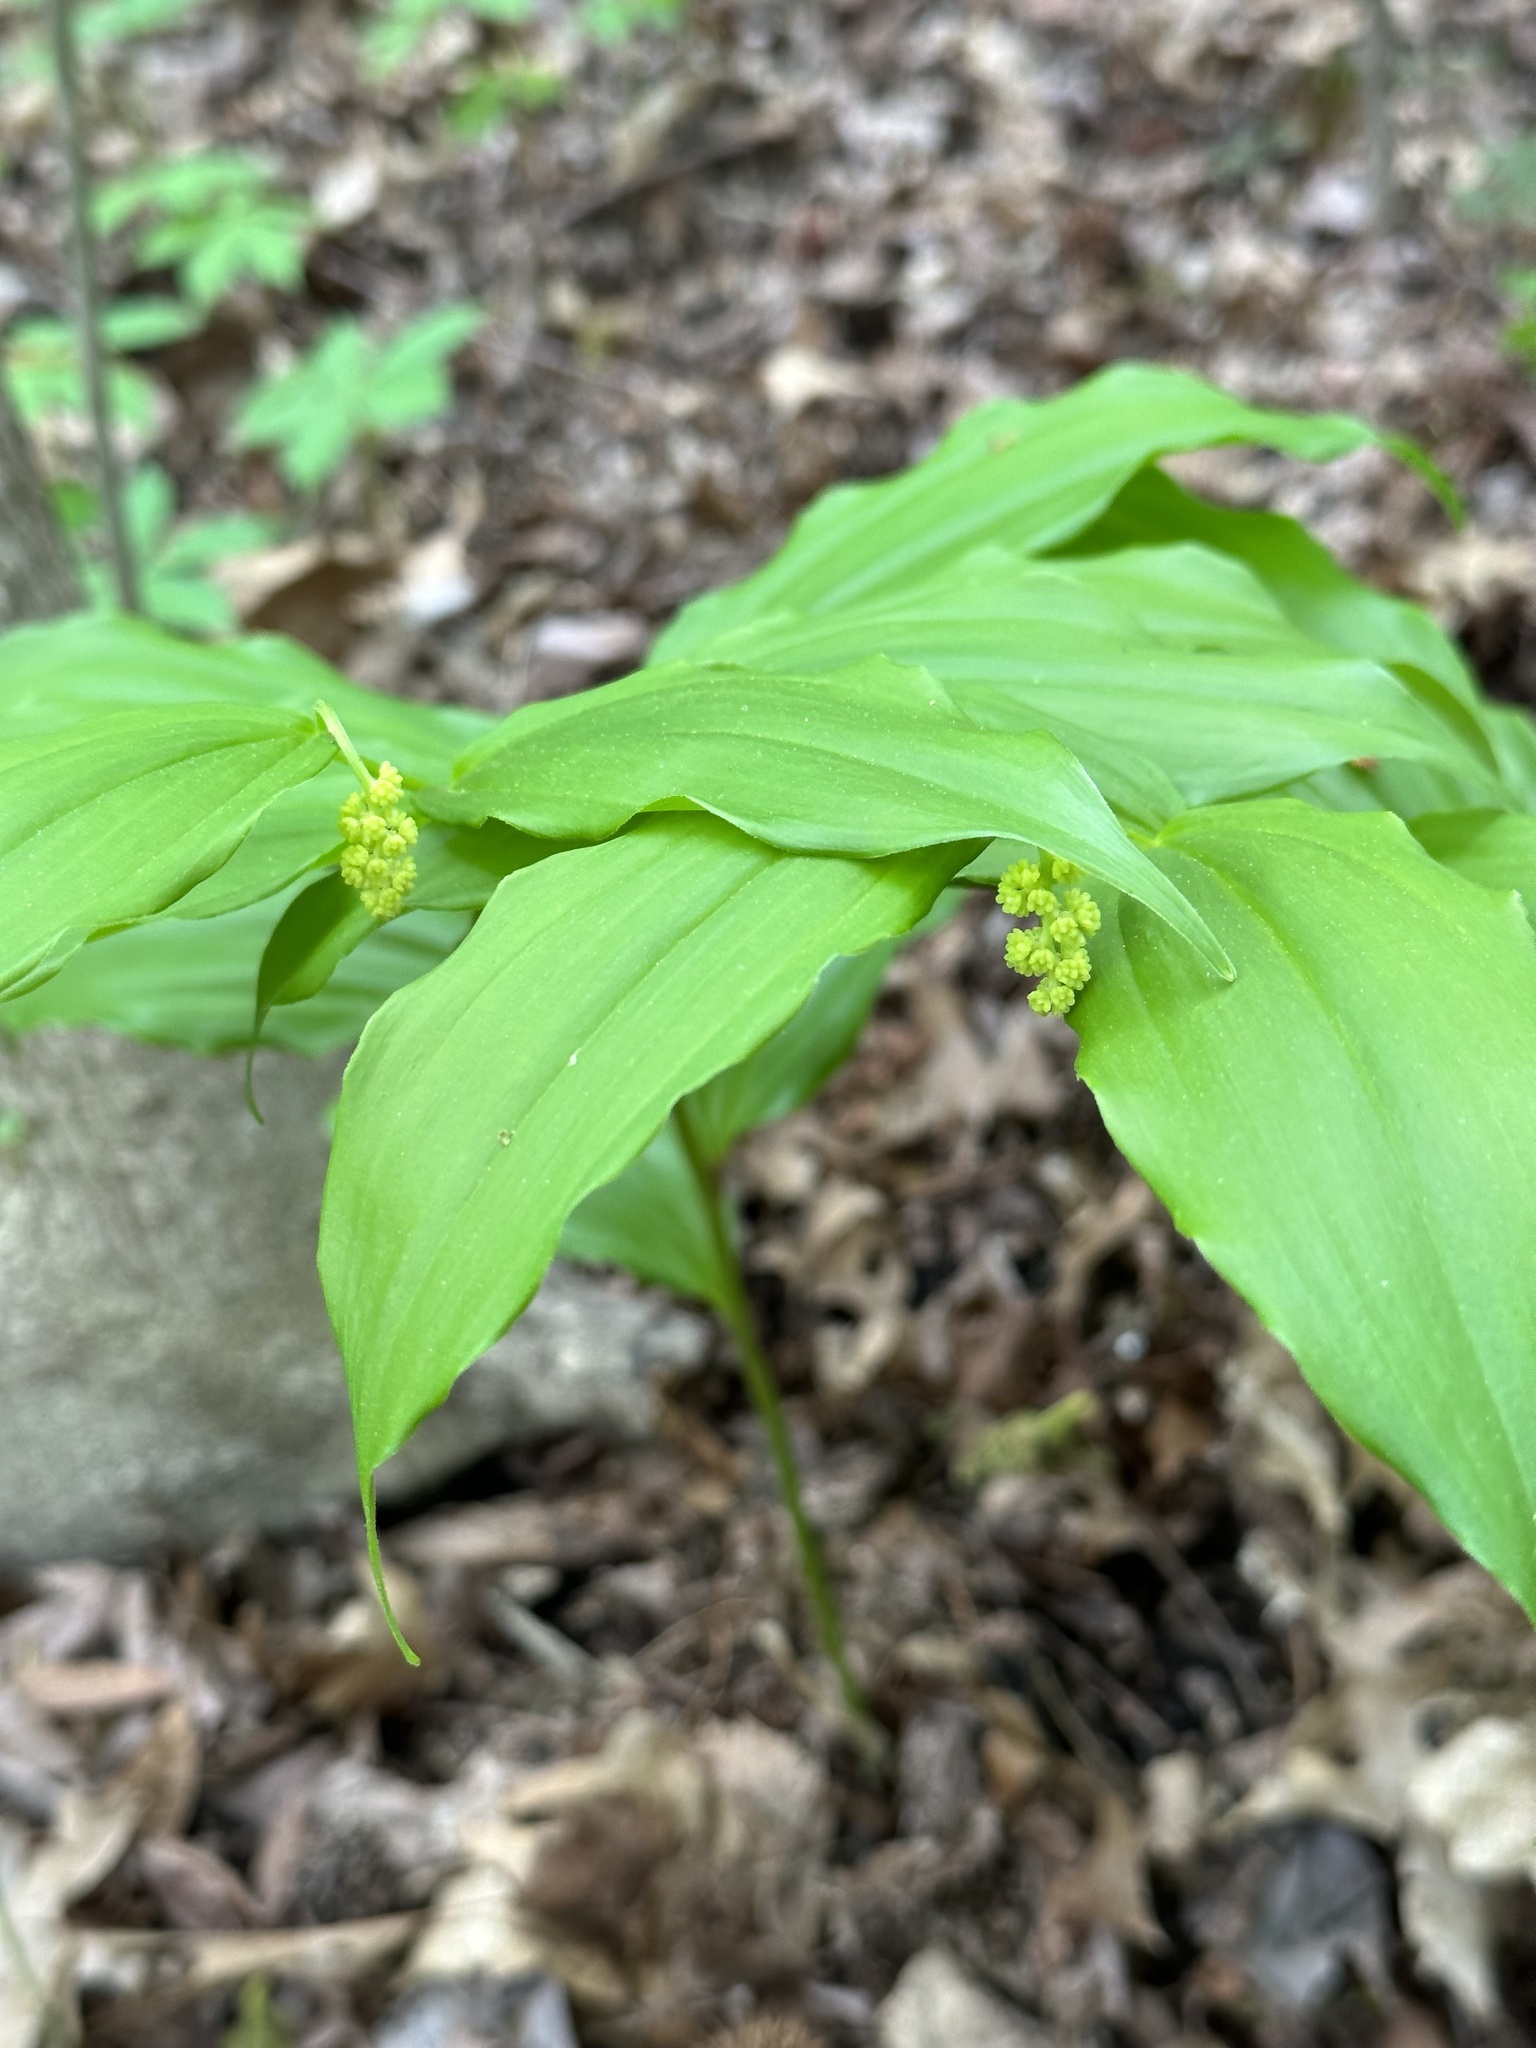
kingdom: Plantae
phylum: Tracheophyta
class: Liliopsida
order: Asparagales
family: Asparagaceae
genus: Maianthemum
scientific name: Maianthemum racemosum
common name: False spikenard
